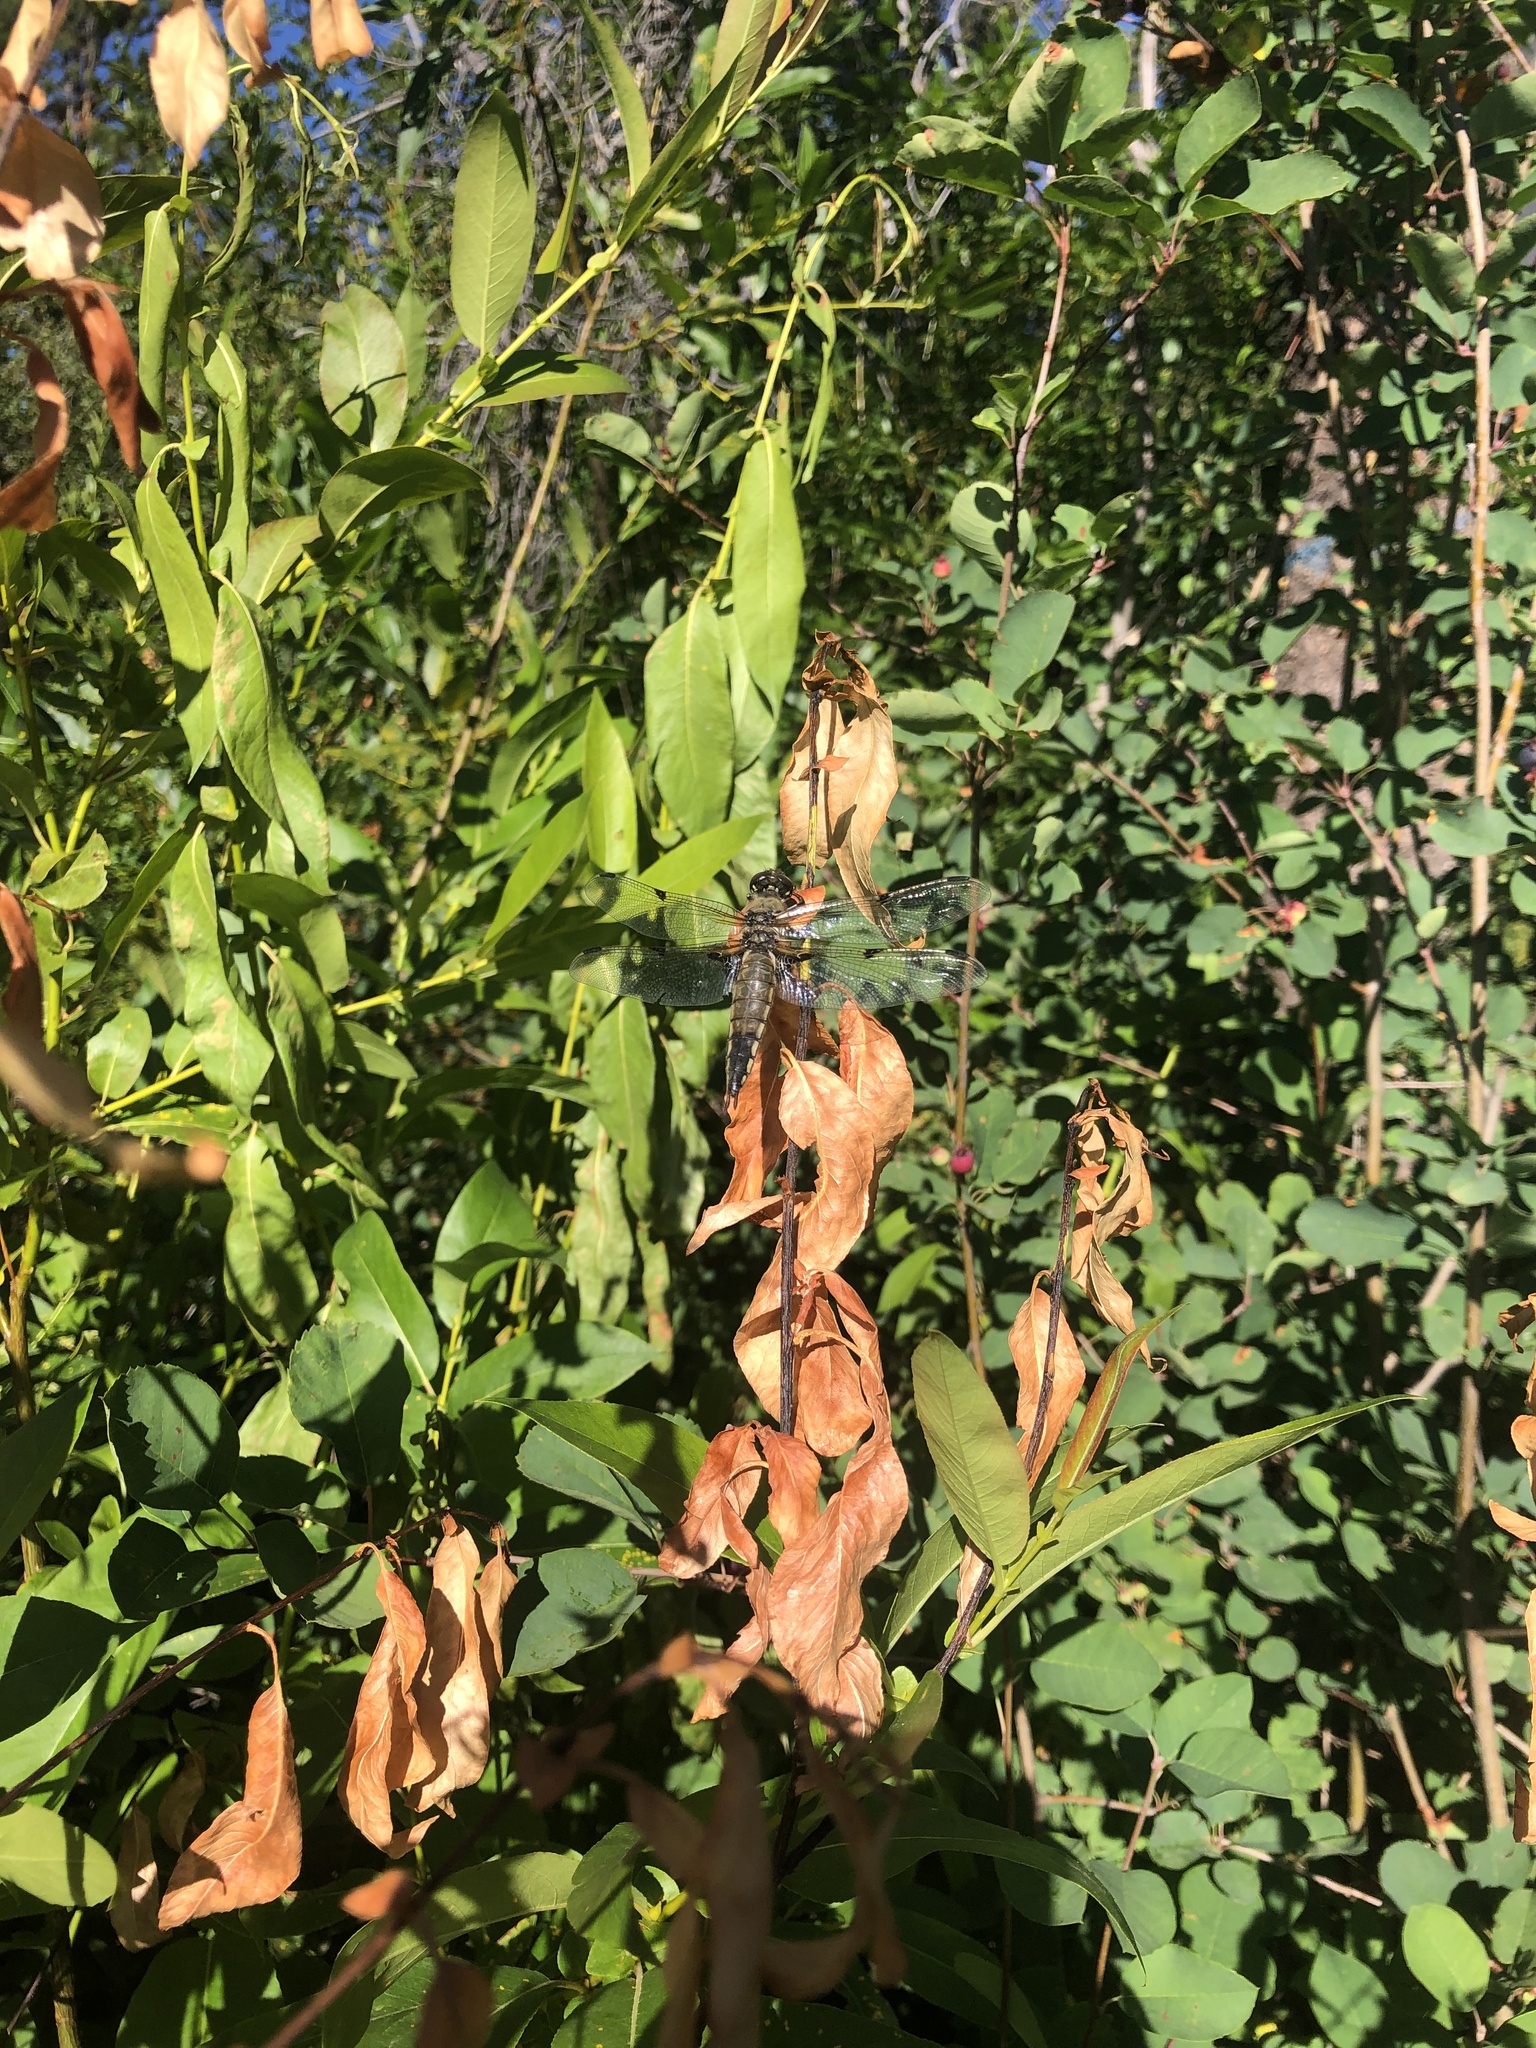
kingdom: Animalia
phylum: Arthropoda
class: Insecta
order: Odonata
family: Libellulidae
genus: Libellula
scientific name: Libellula quadrimaculata
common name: Four-spotted chaser
